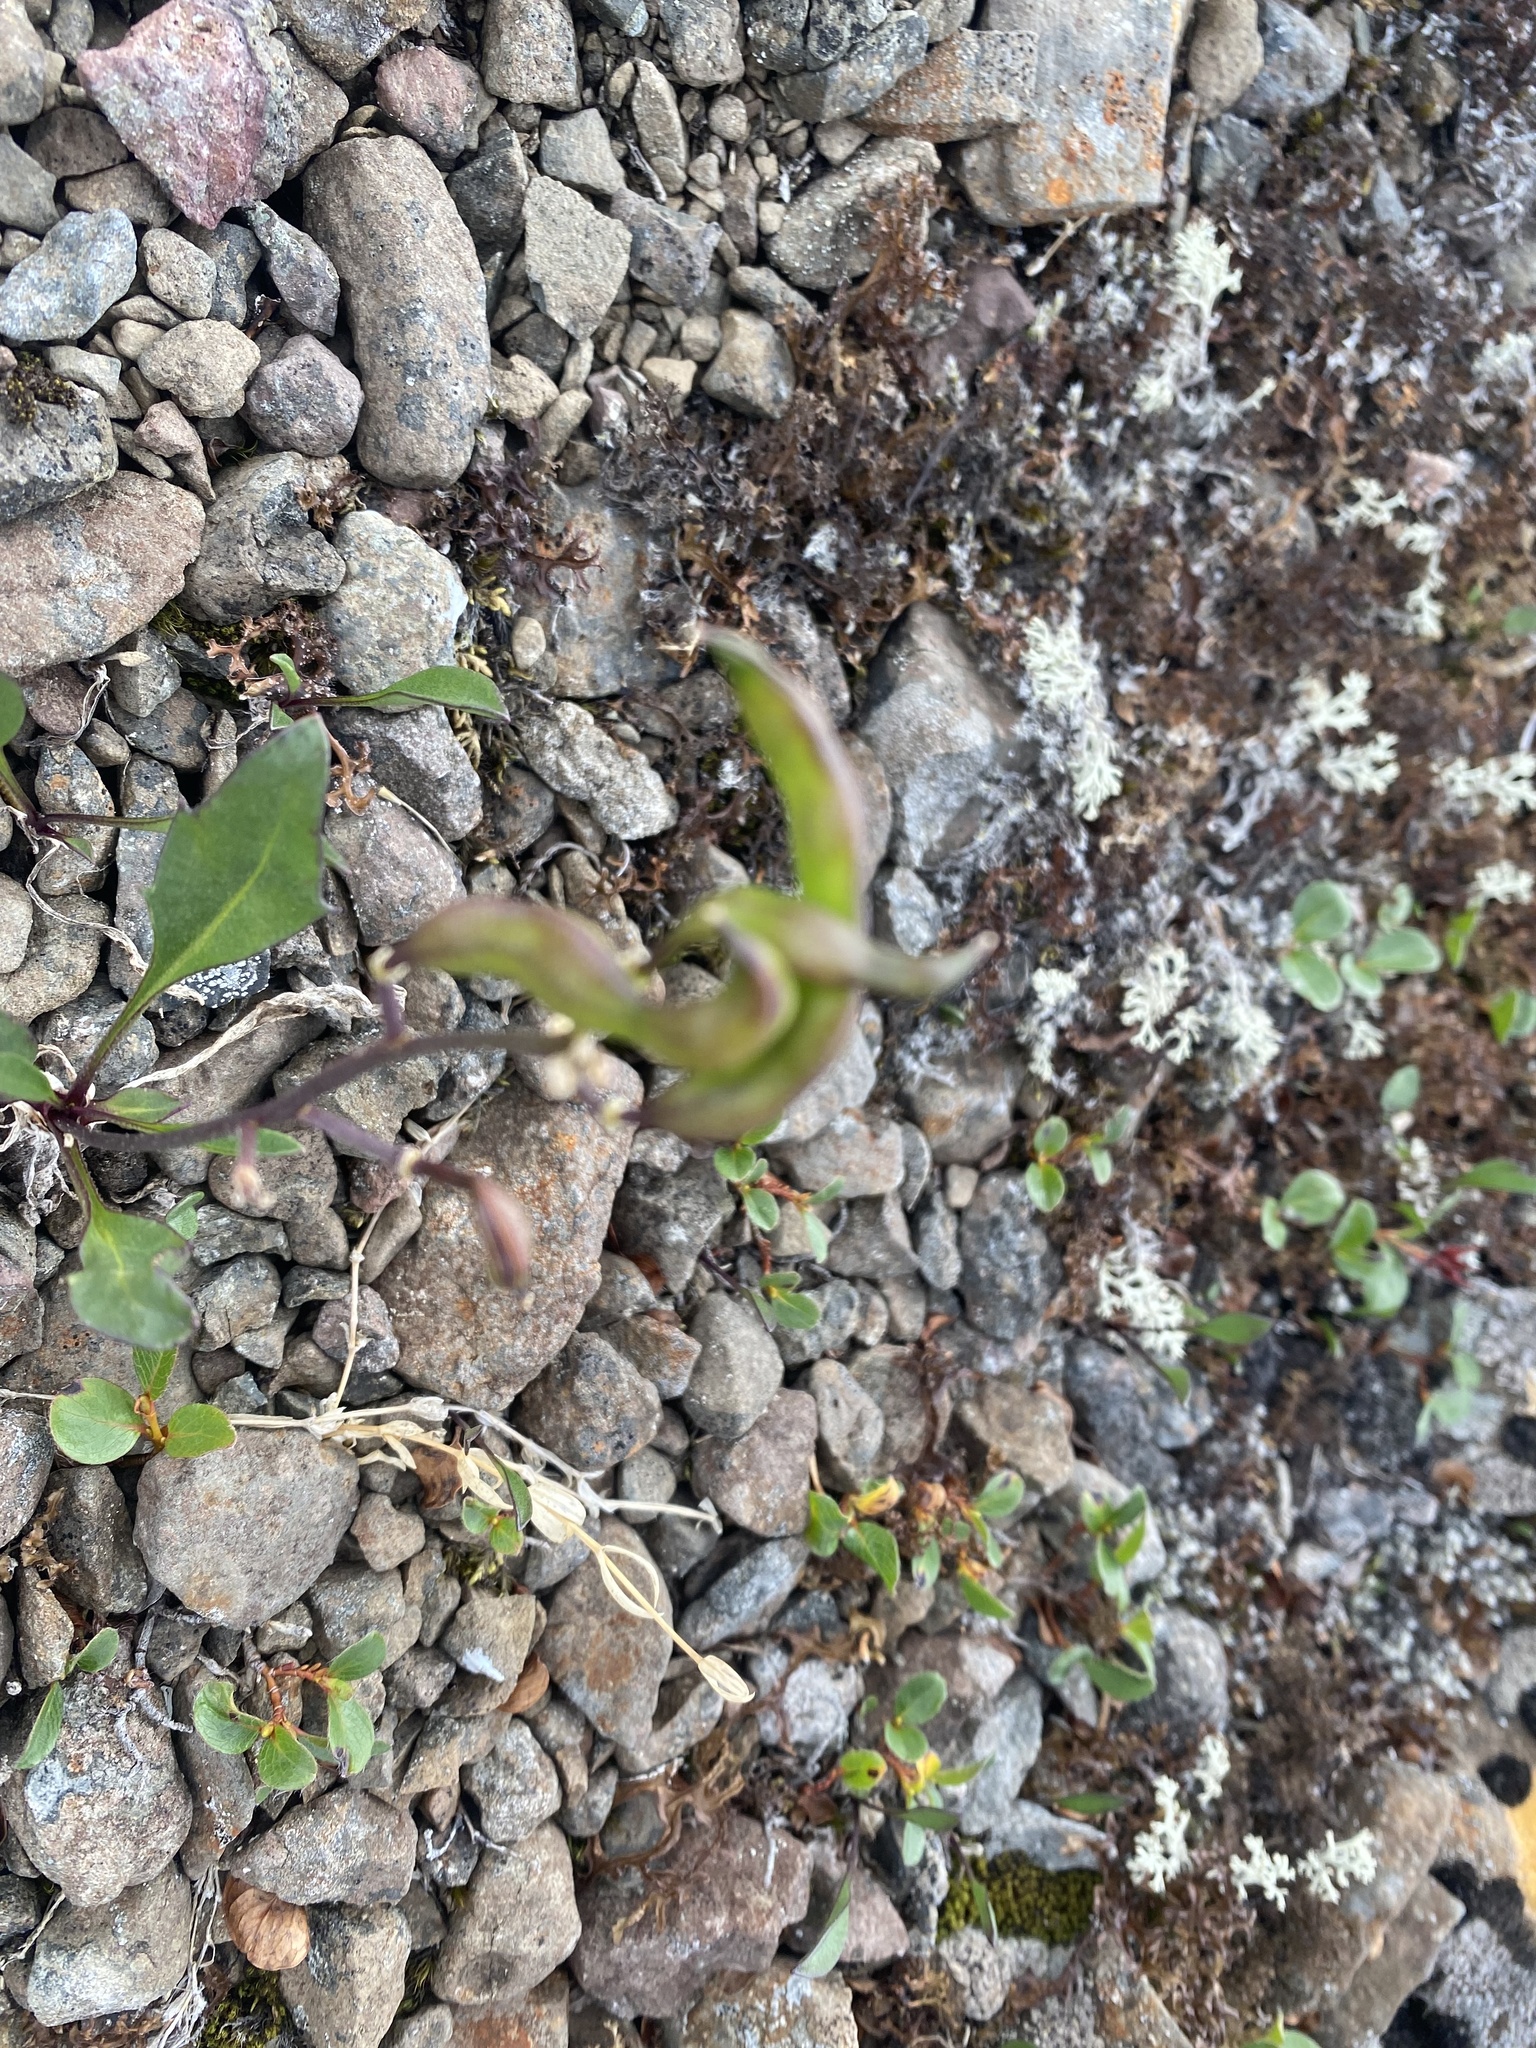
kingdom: Plantae
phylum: Tracheophyta
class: Magnoliopsida
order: Brassicales
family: Brassicaceae
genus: Parrya
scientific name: Parrya nudicaulis
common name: Naked-stemmed false wallflower
